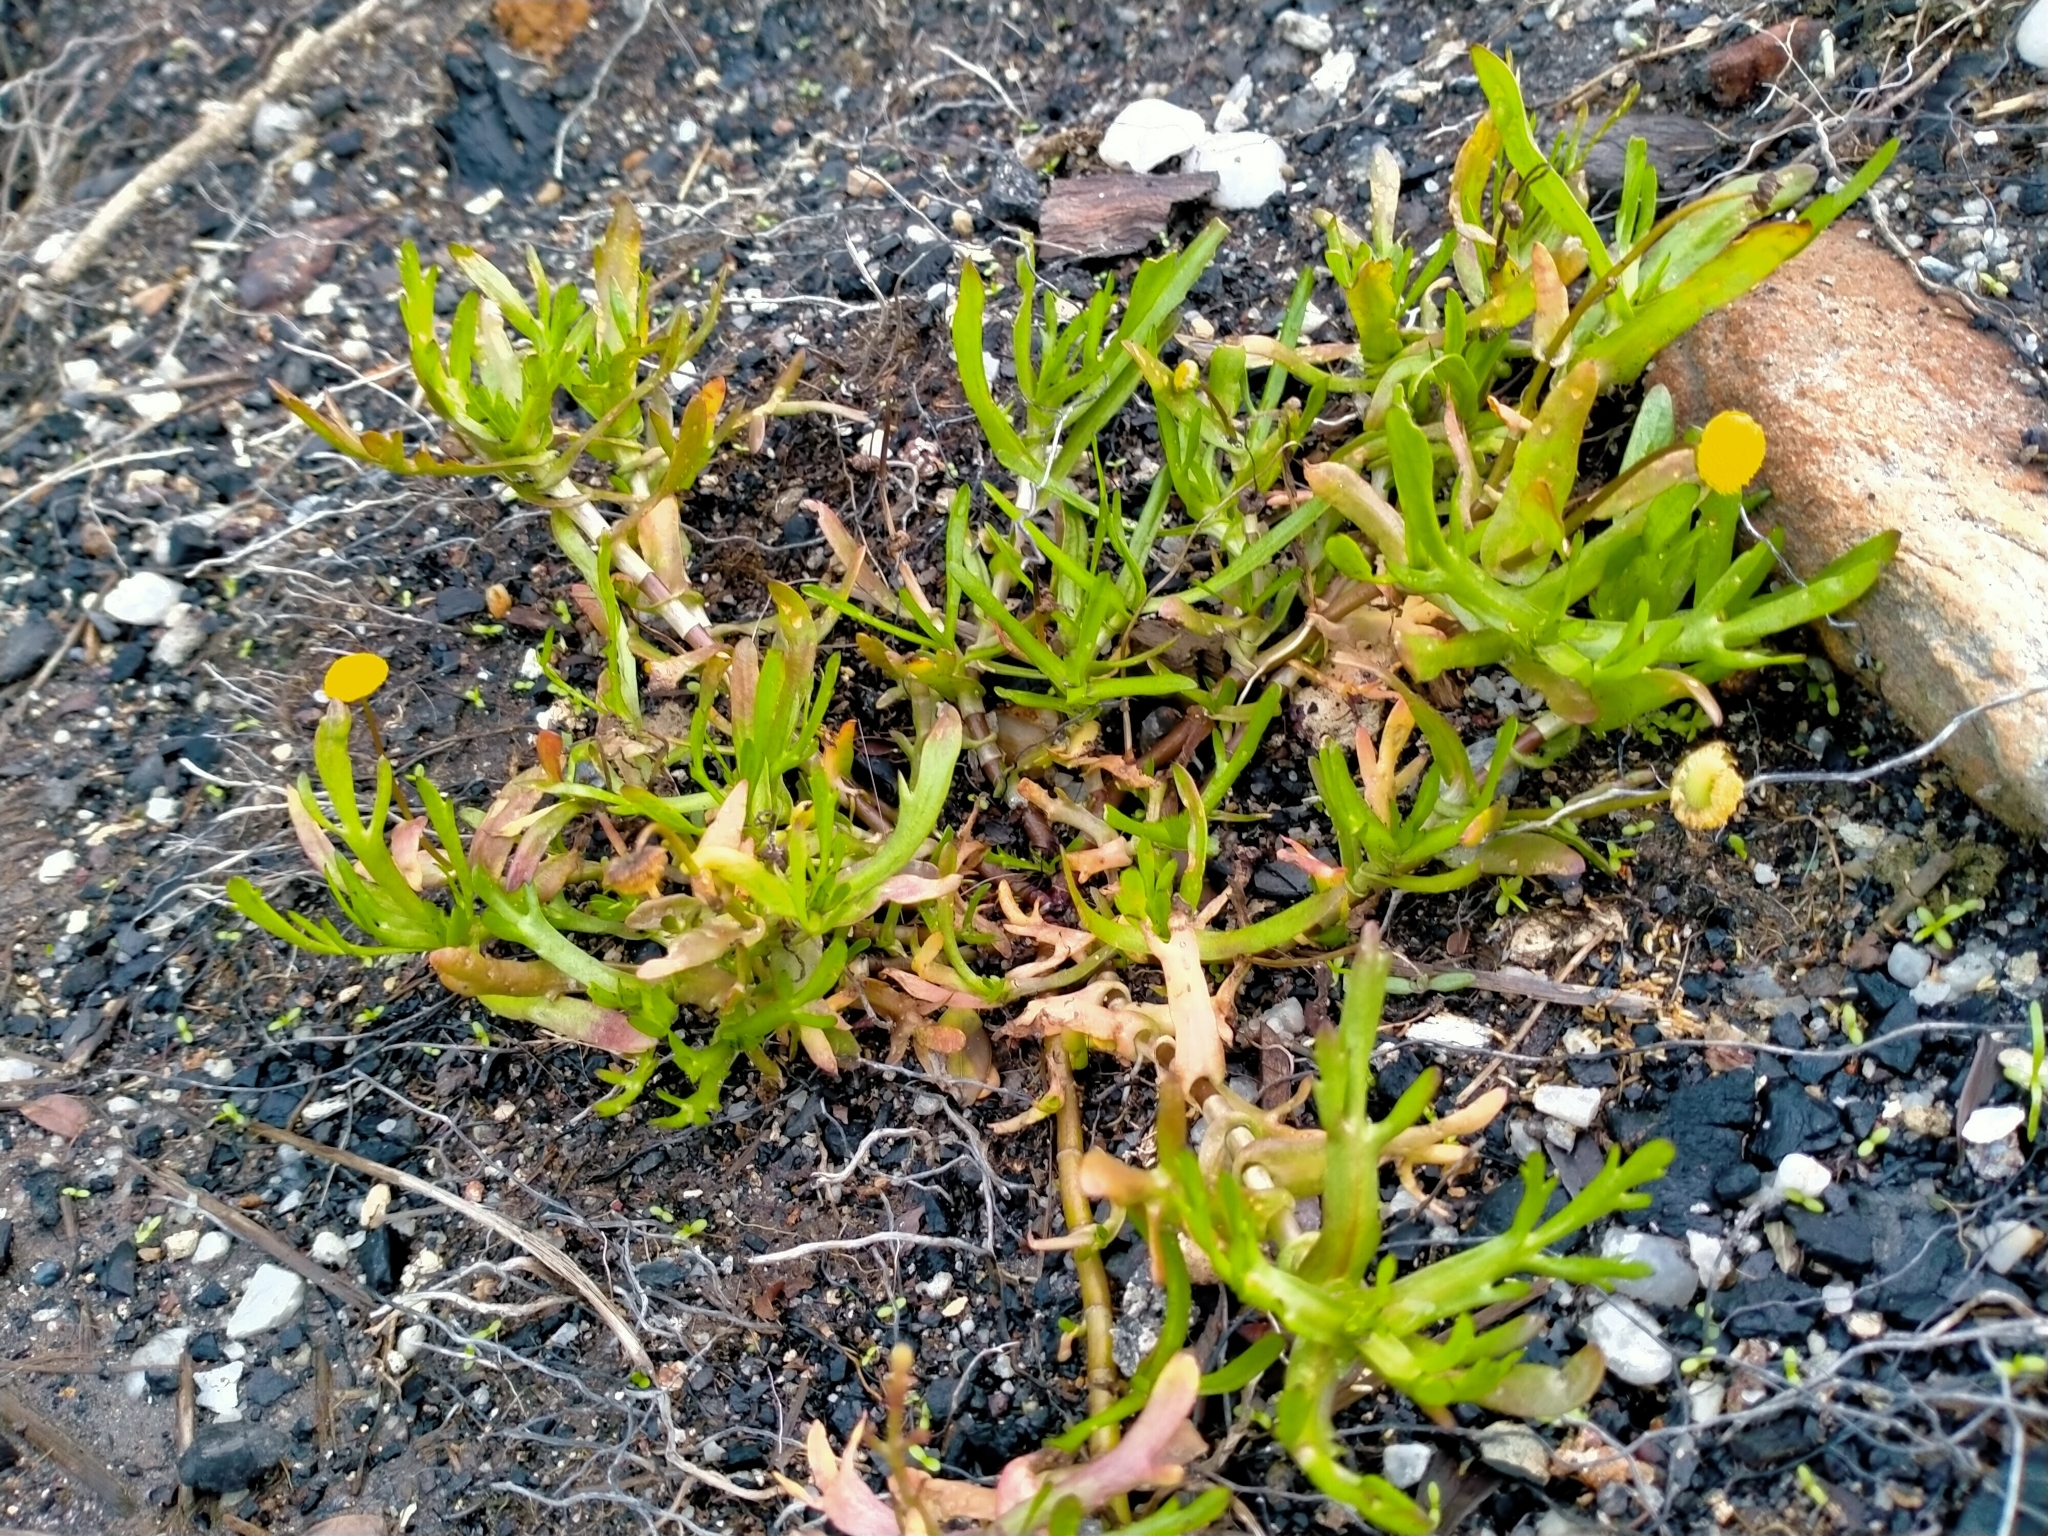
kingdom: Plantae
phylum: Tracheophyta
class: Magnoliopsida
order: Asterales
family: Asteraceae
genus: Cotula
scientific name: Cotula coronopifolia
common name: Buttonweed
